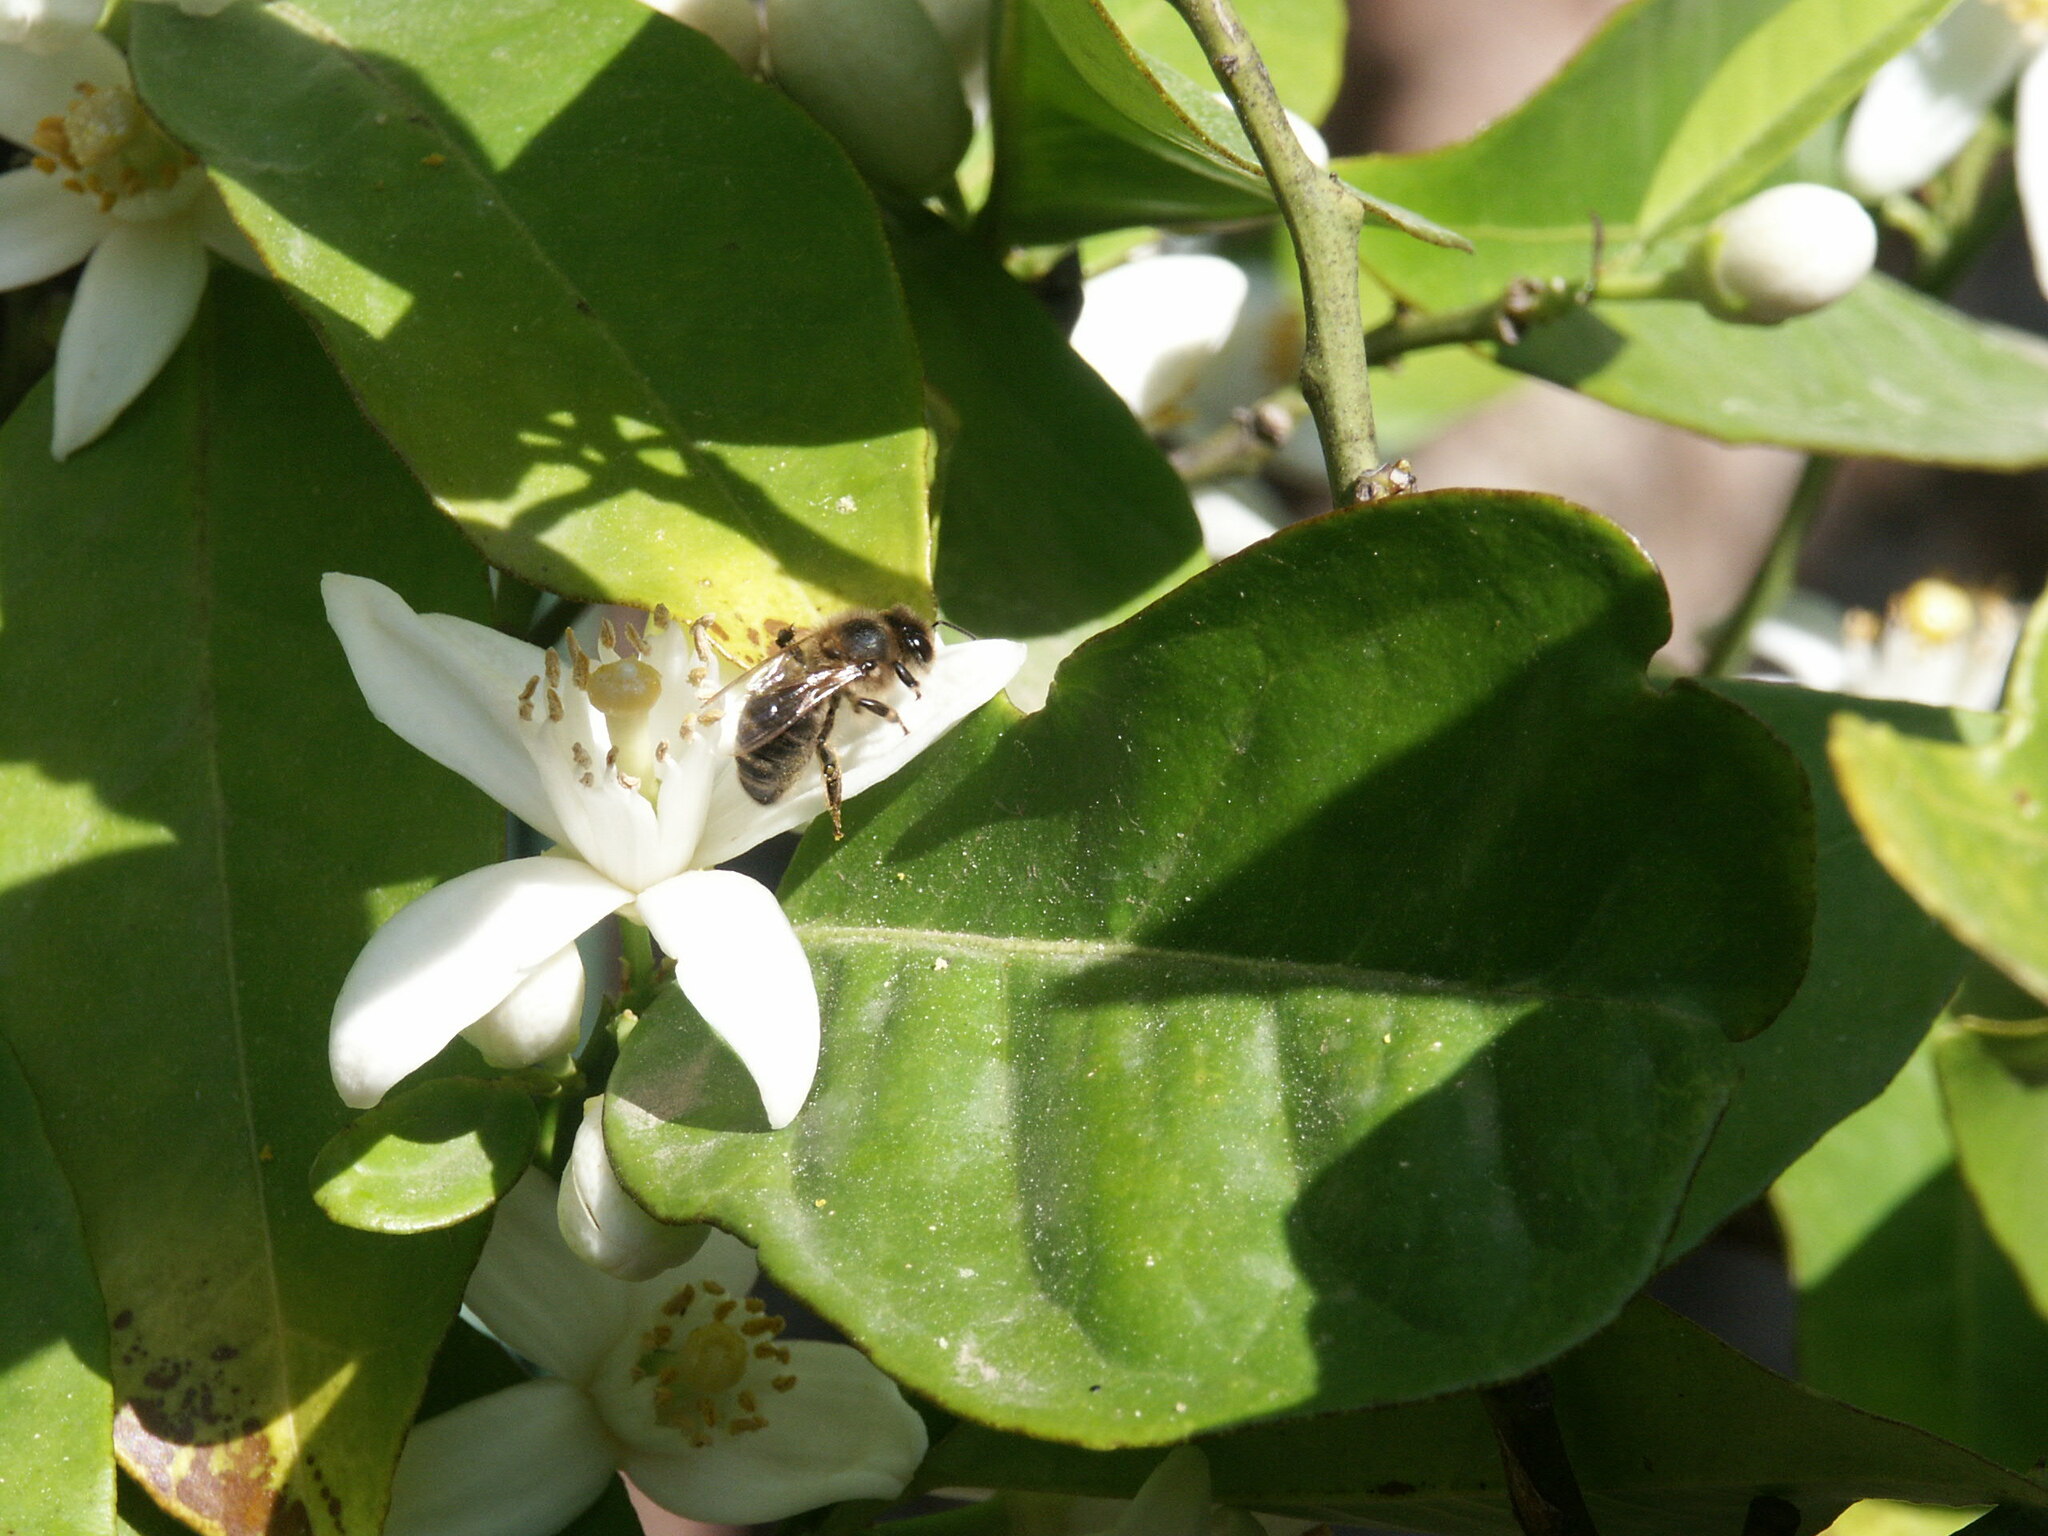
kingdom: Animalia
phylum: Arthropoda
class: Insecta
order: Hymenoptera
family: Apidae
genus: Apis
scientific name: Apis mellifera
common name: Honey bee
